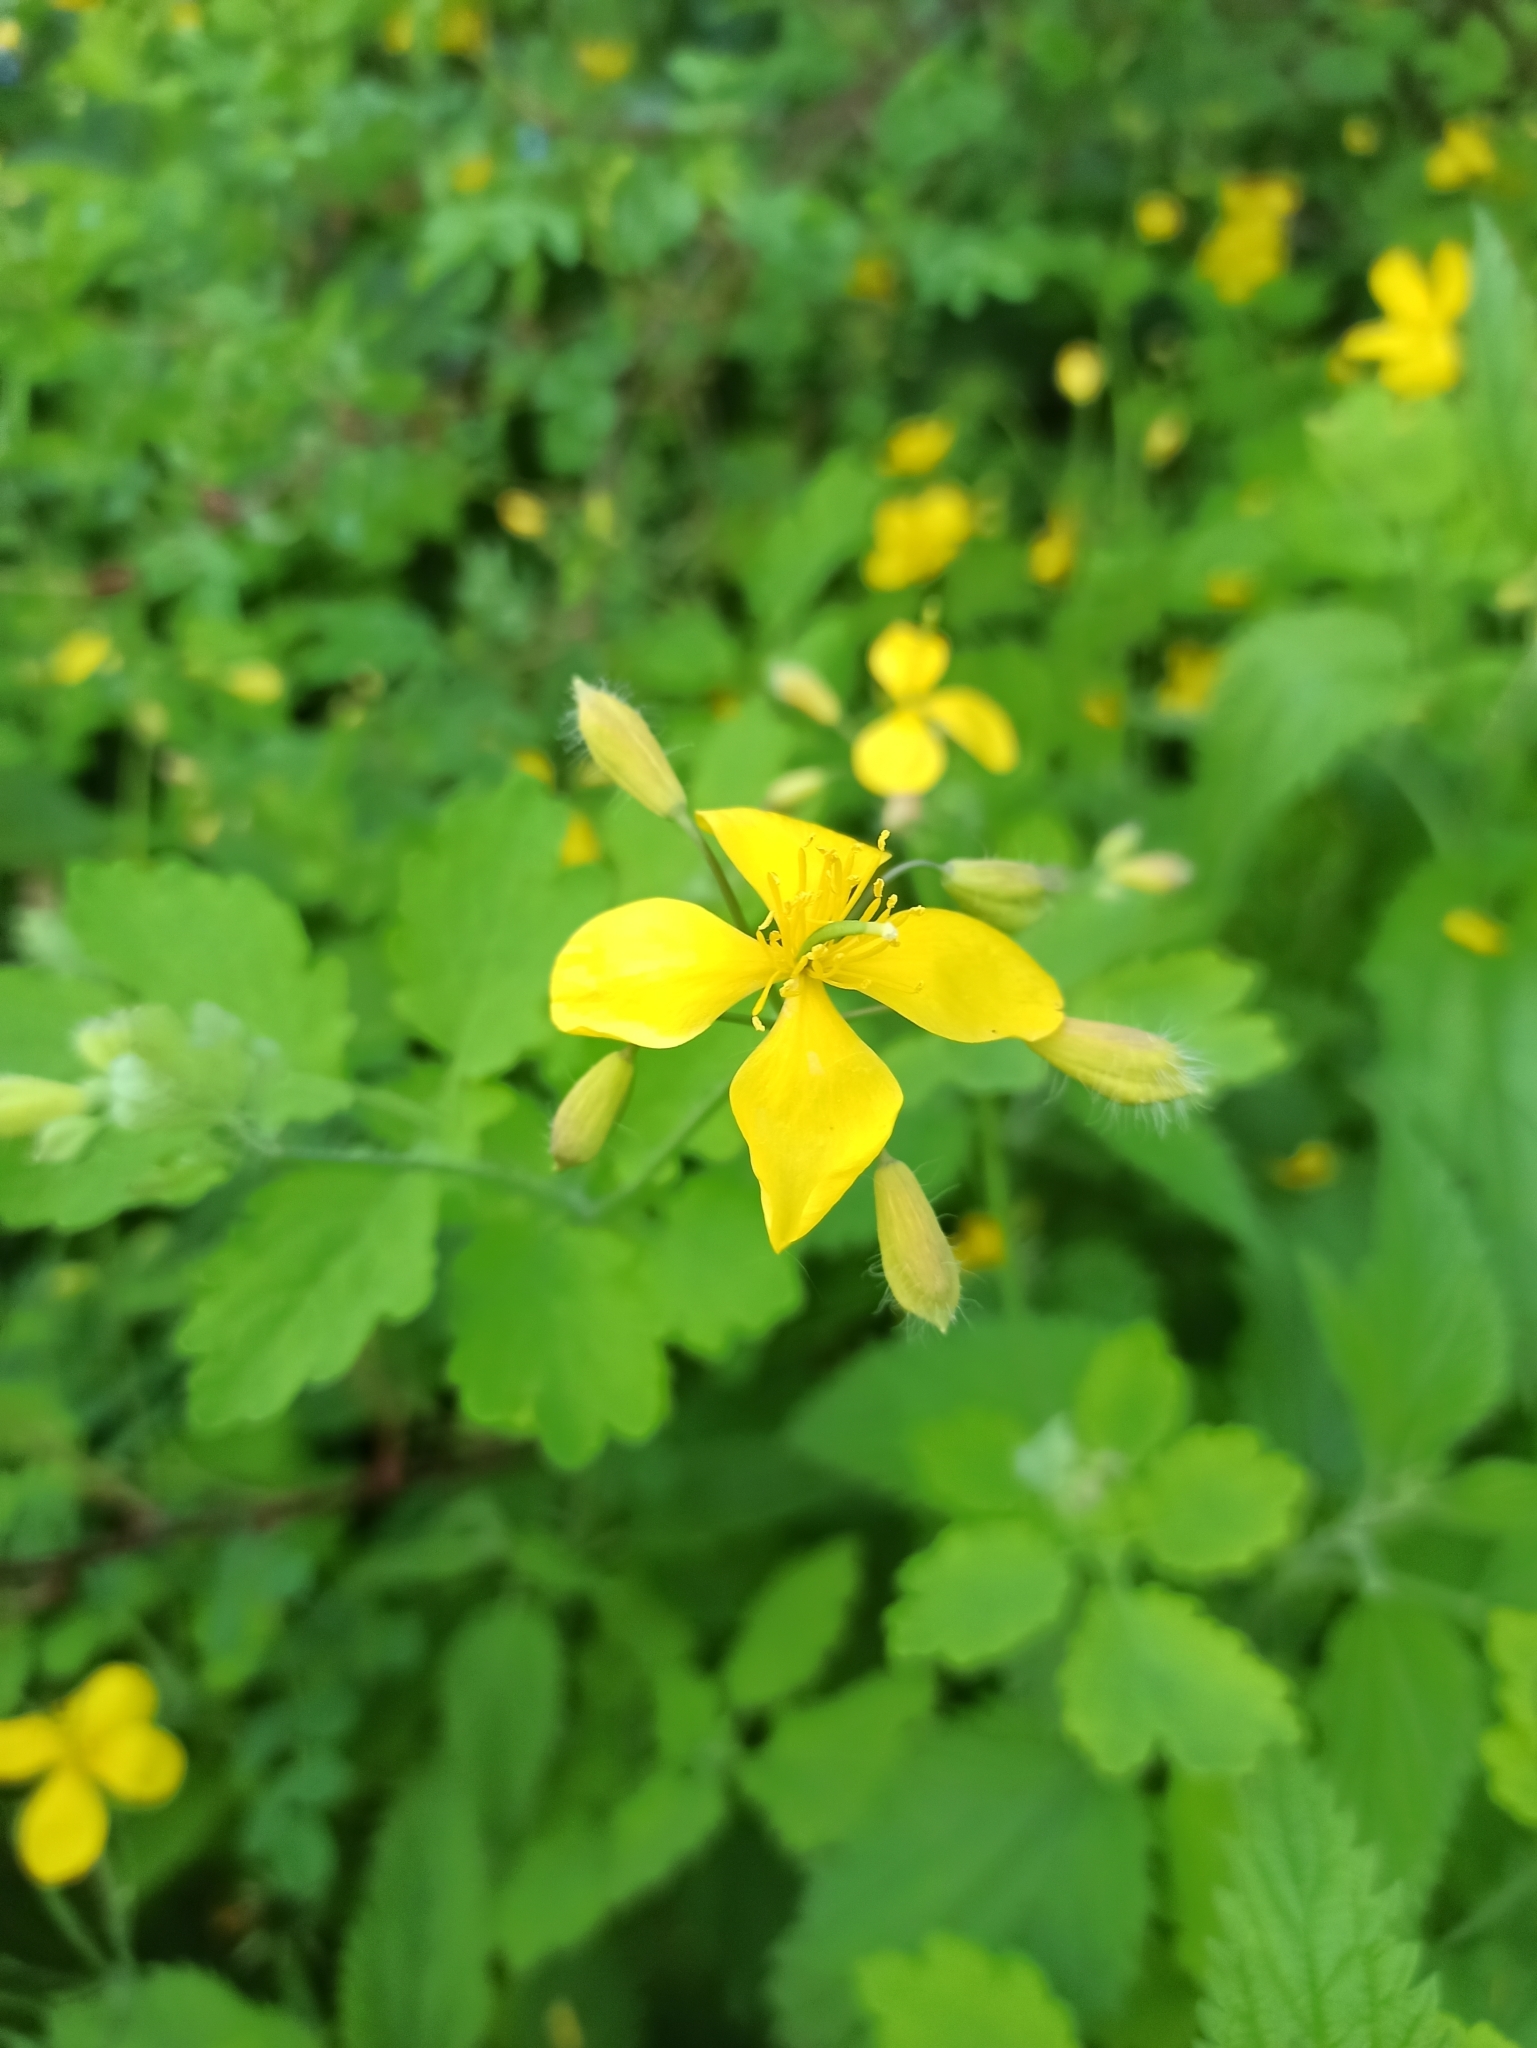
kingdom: Plantae
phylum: Tracheophyta
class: Magnoliopsida
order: Ranunculales
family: Papaveraceae
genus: Chelidonium
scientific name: Chelidonium majus
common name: Greater celandine
